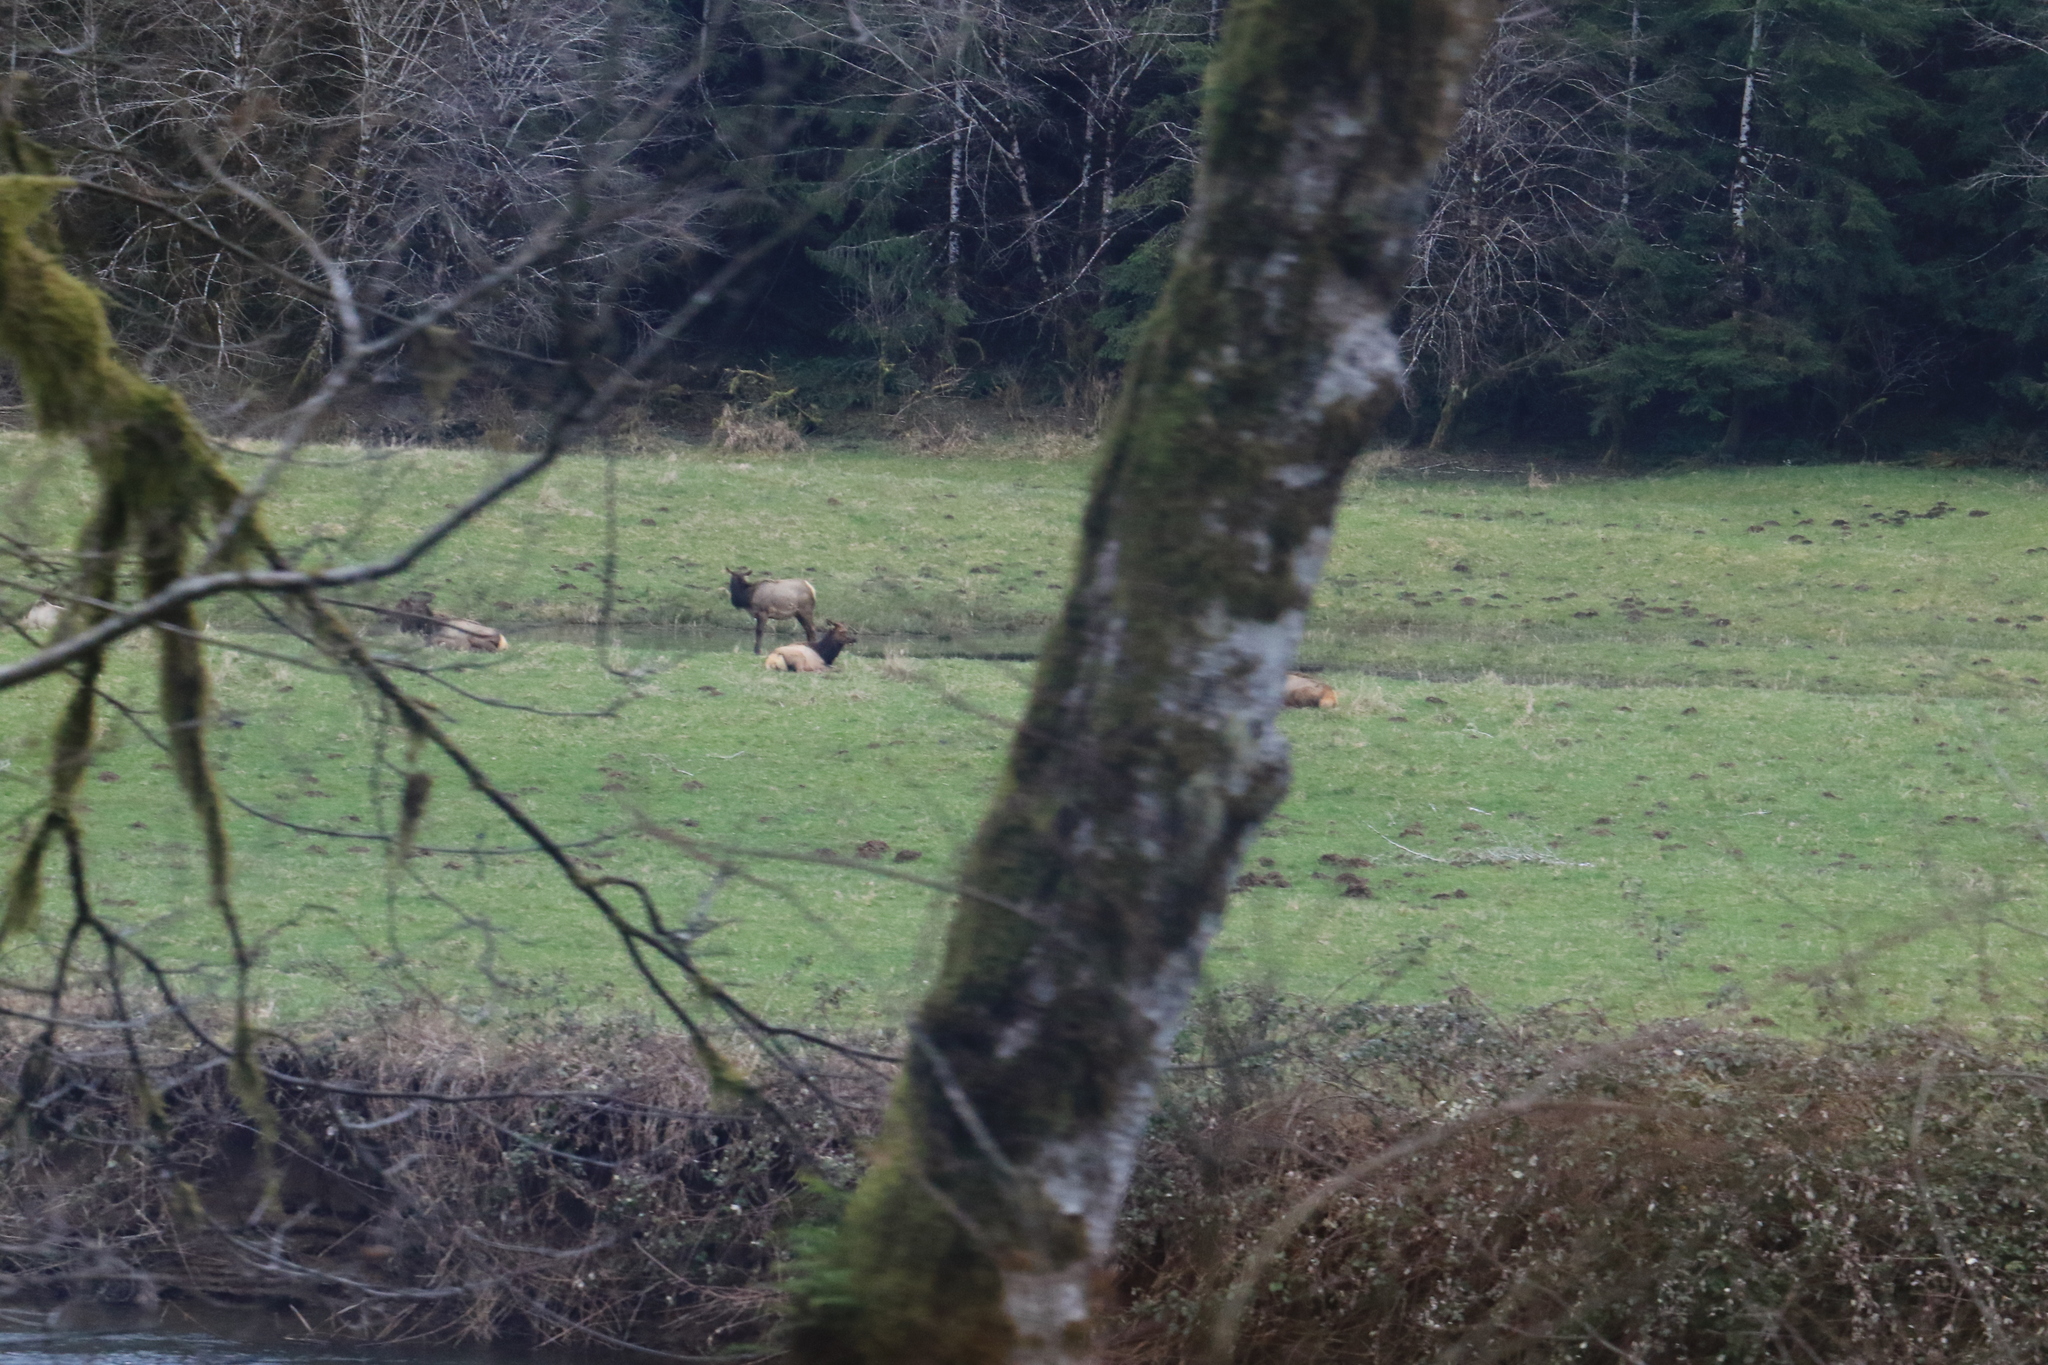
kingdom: Animalia
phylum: Chordata
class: Mammalia
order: Artiodactyla
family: Cervidae
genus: Cervus
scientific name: Cervus elaphus
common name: Red deer
